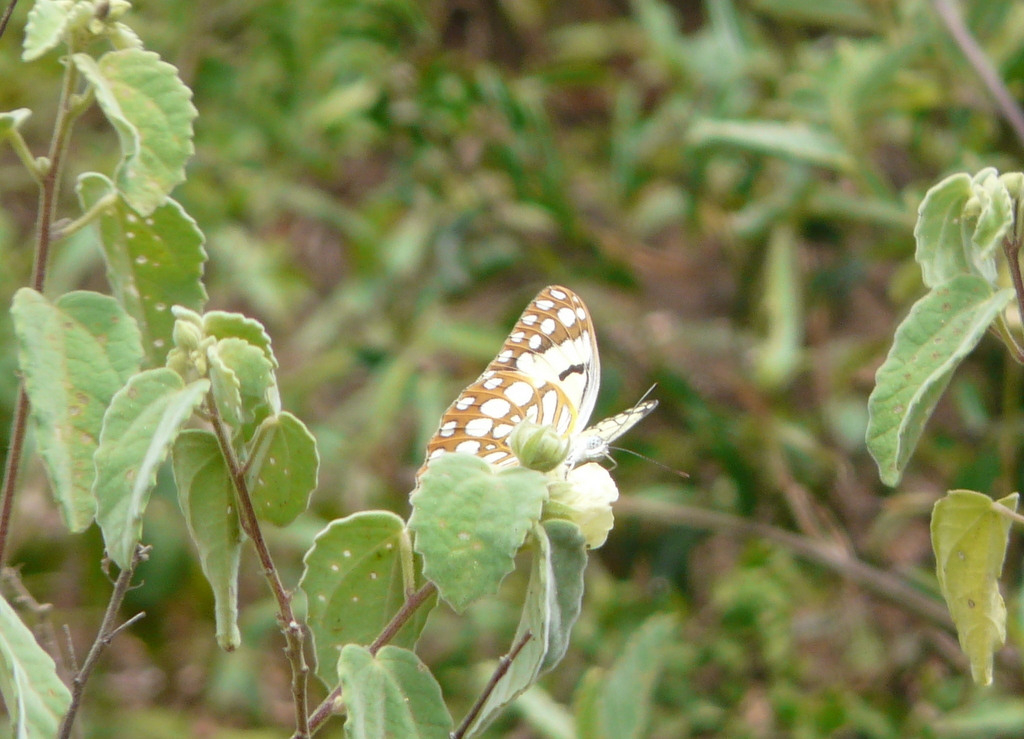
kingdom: Animalia
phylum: Arthropoda
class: Insecta
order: Lepidoptera
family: Pieridae
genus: Colotis
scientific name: Colotis protomedia
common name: Yellow splendour
